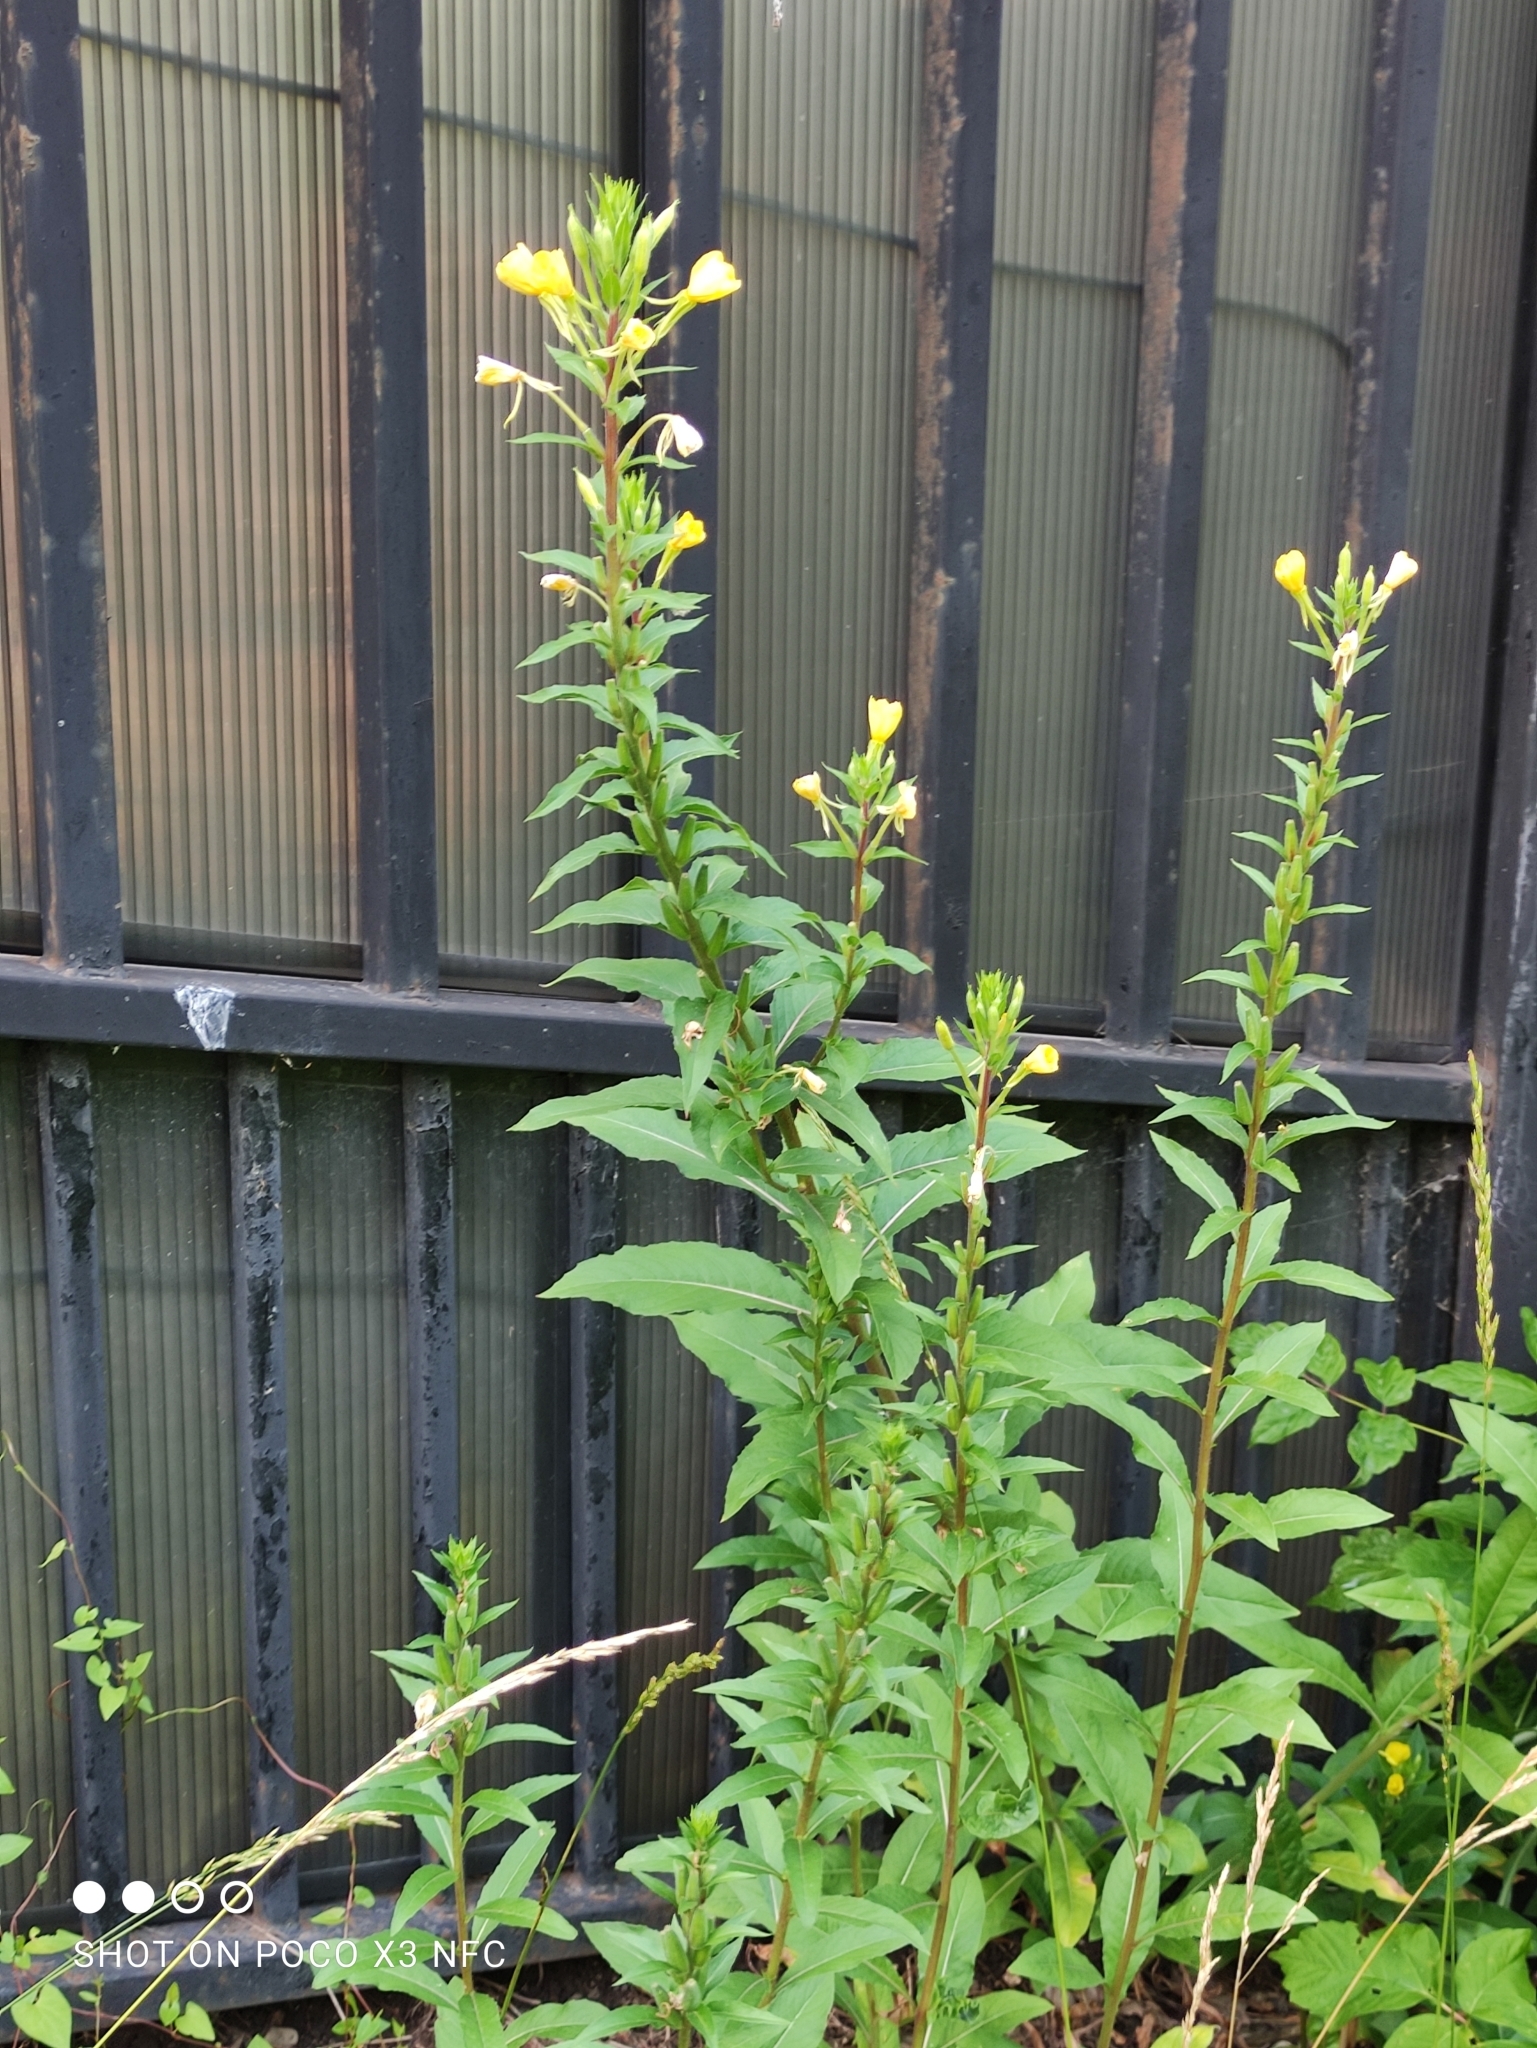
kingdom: Plantae
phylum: Tracheophyta
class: Magnoliopsida
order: Myrtales
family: Onagraceae
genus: Oenothera
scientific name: Oenothera rubricaulis
